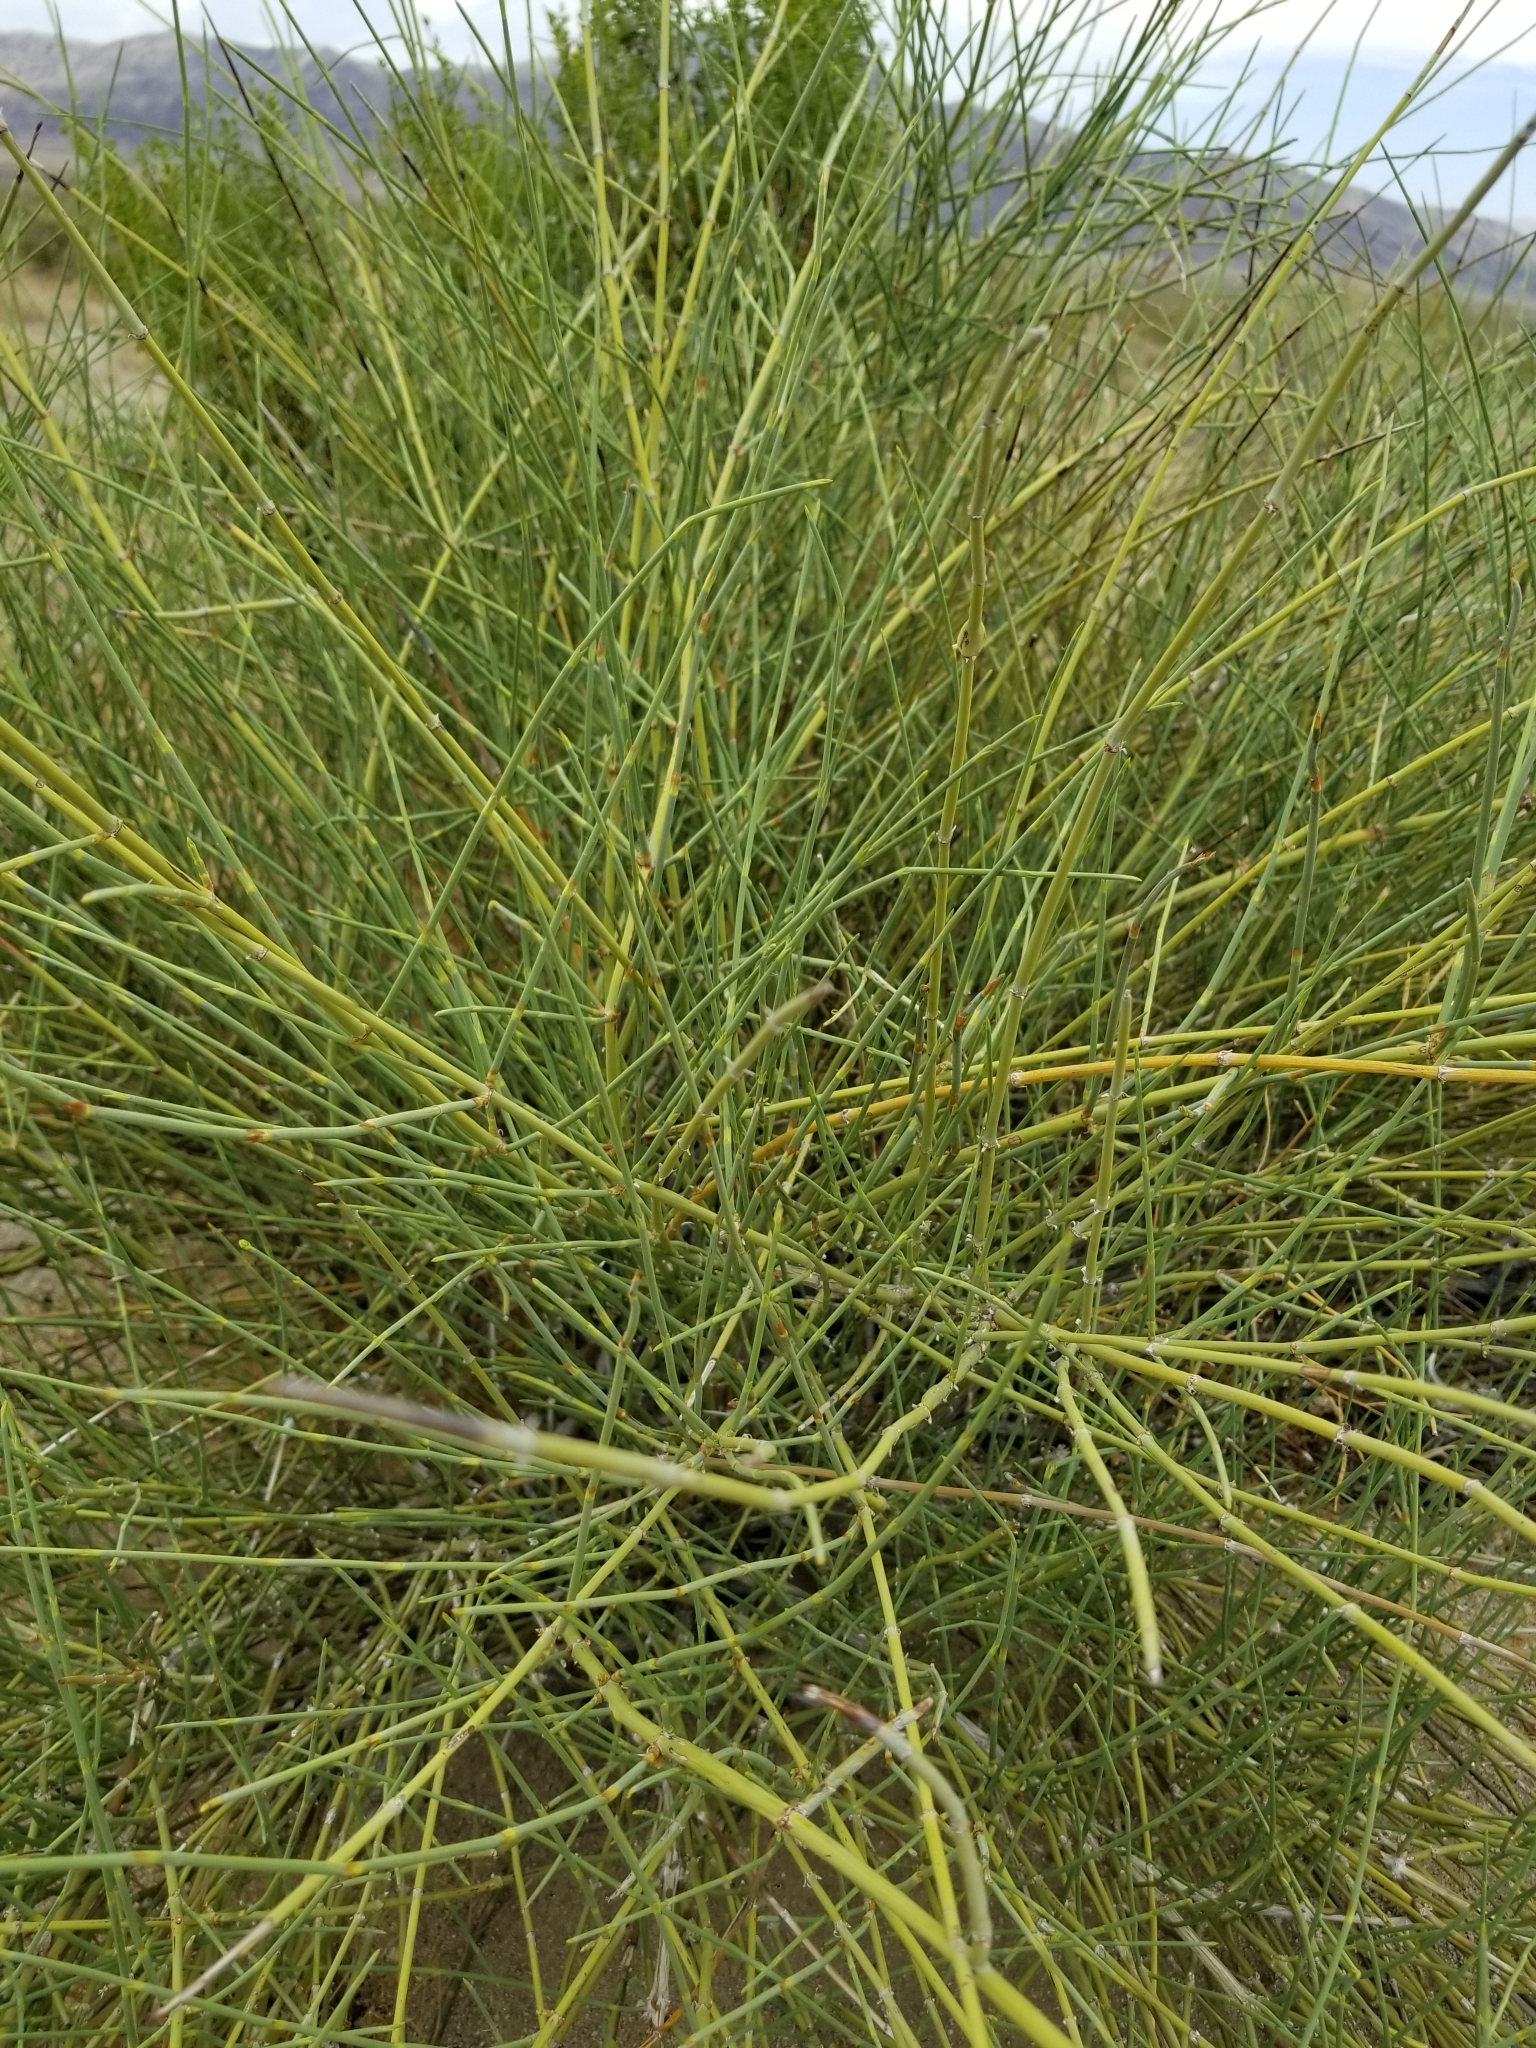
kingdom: Plantae
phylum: Tracheophyta
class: Gnetopsida
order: Ephedrales
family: Ephedraceae
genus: Ephedra
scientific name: Ephedra californica
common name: California ephedra
